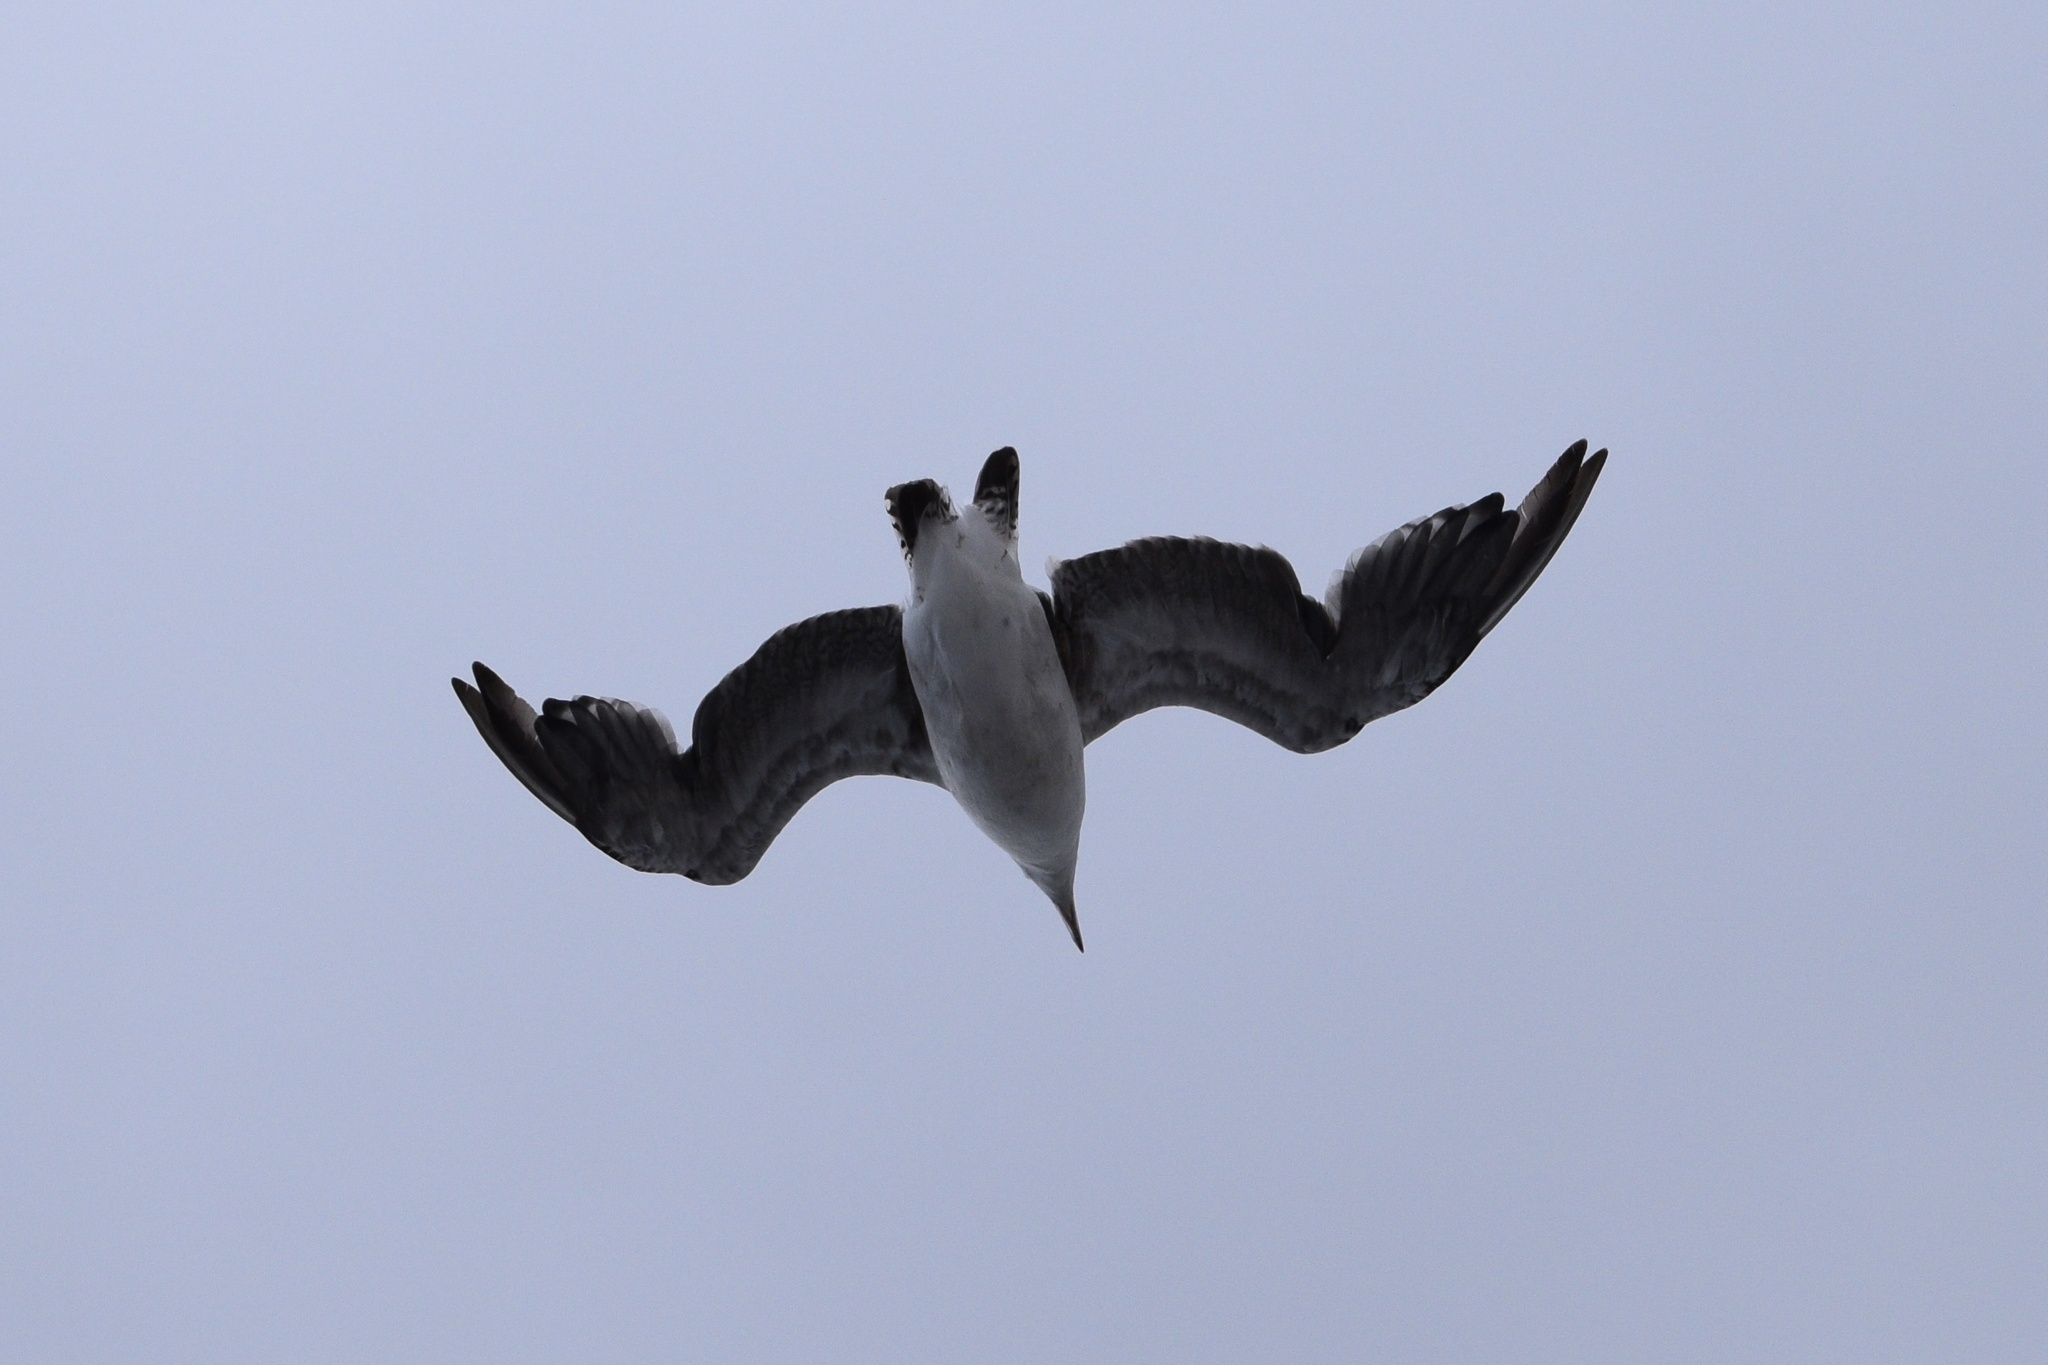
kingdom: Animalia
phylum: Chordata
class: Aves
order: Charadriiformes
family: Laridae
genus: Larus
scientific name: Larus dominicanus
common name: Kelp gull
